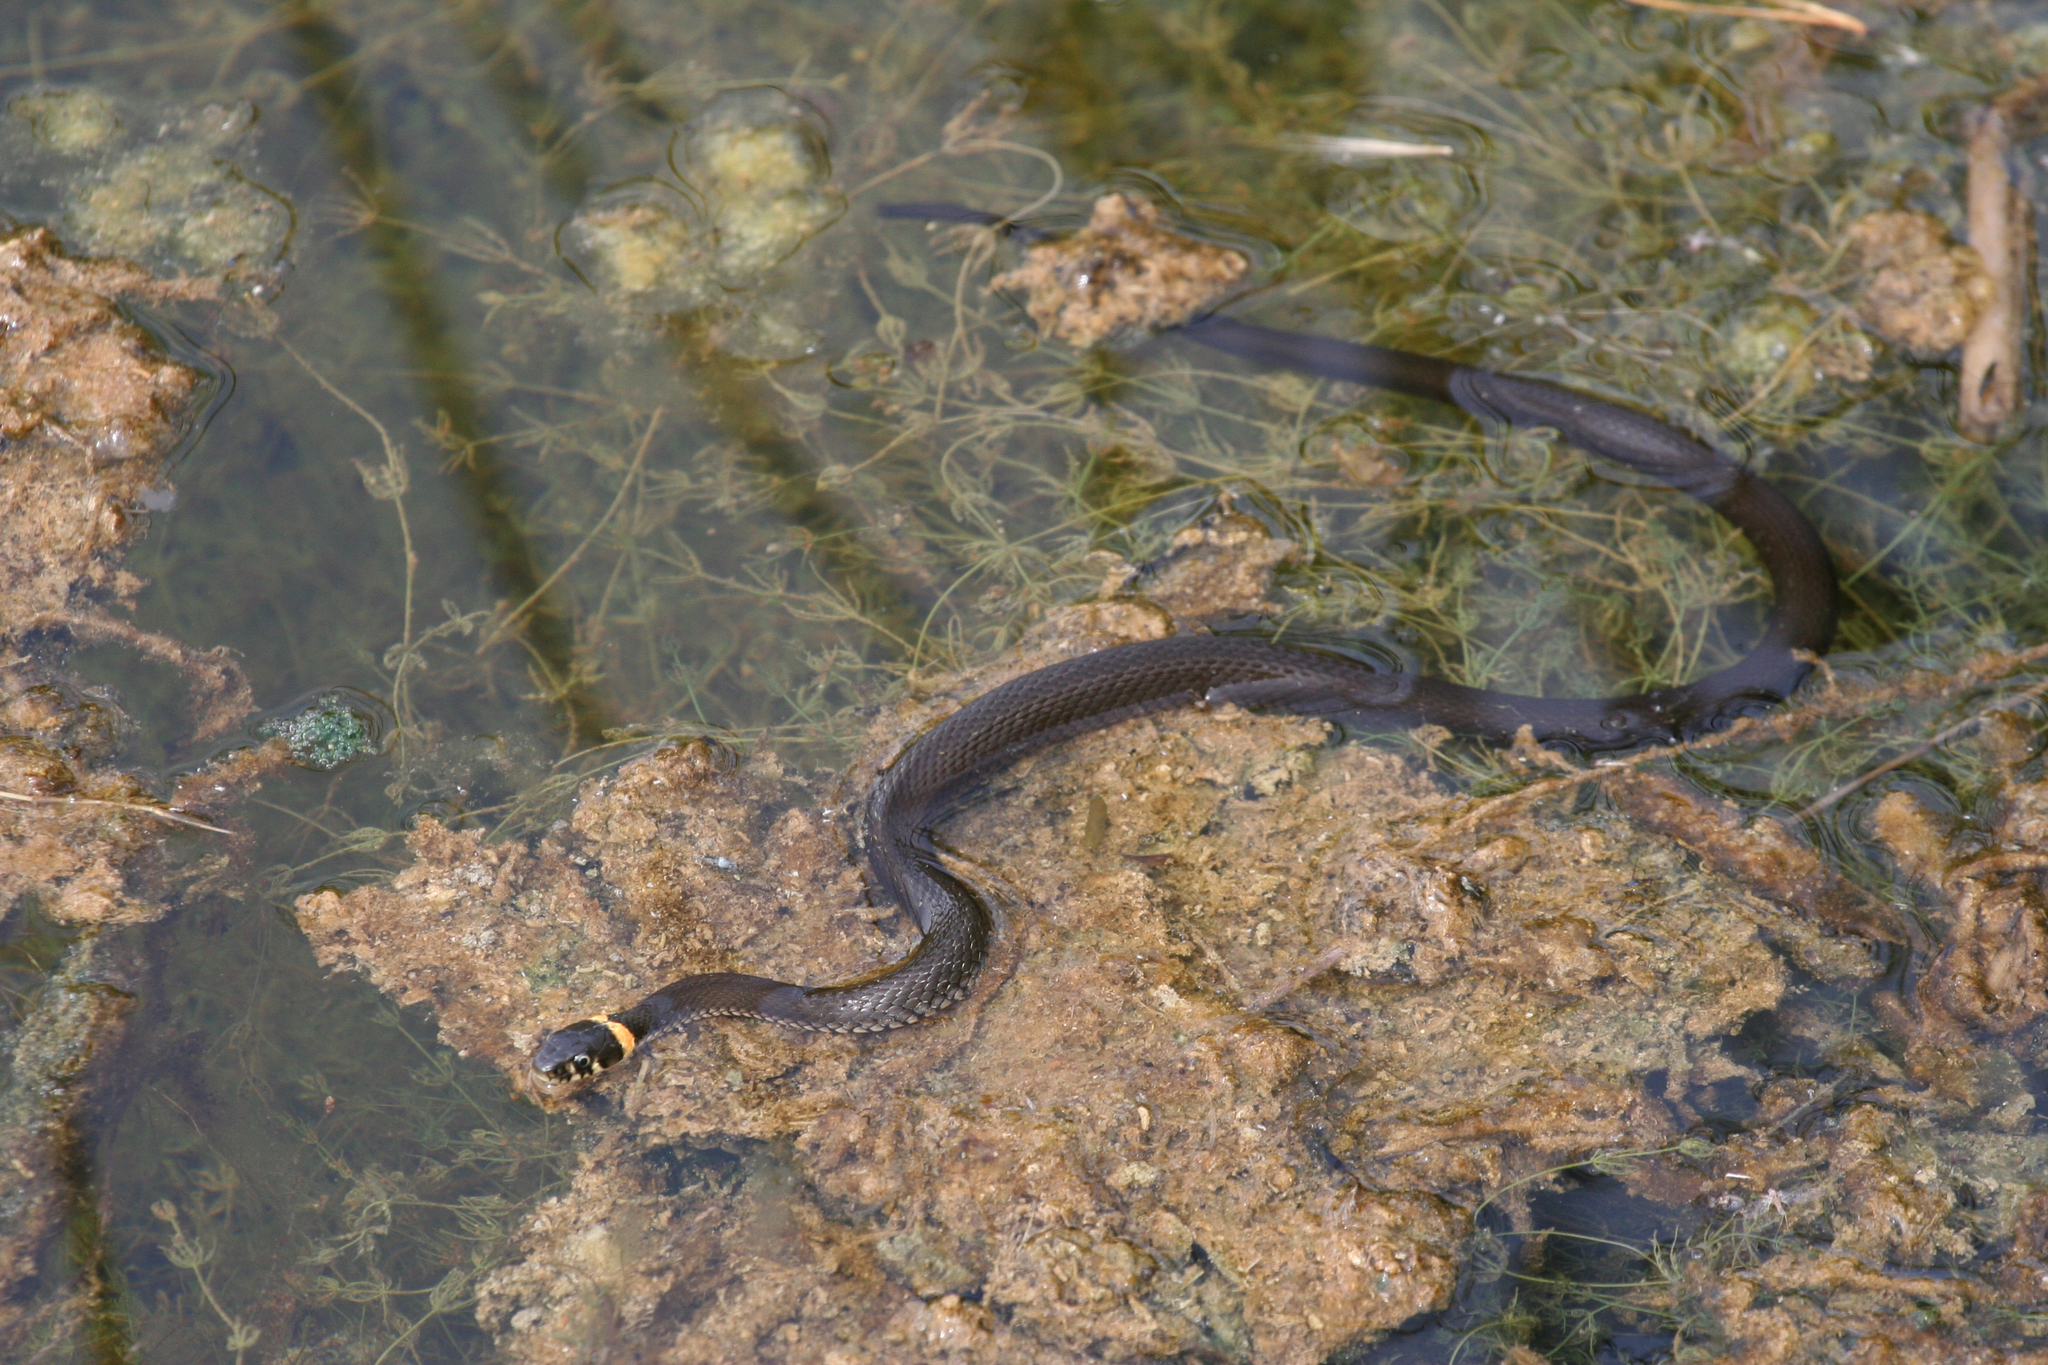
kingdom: Animalia
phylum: Chordata
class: Squamata
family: Colubridae
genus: Natrix
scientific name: Natrix natrix
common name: Grass snake
